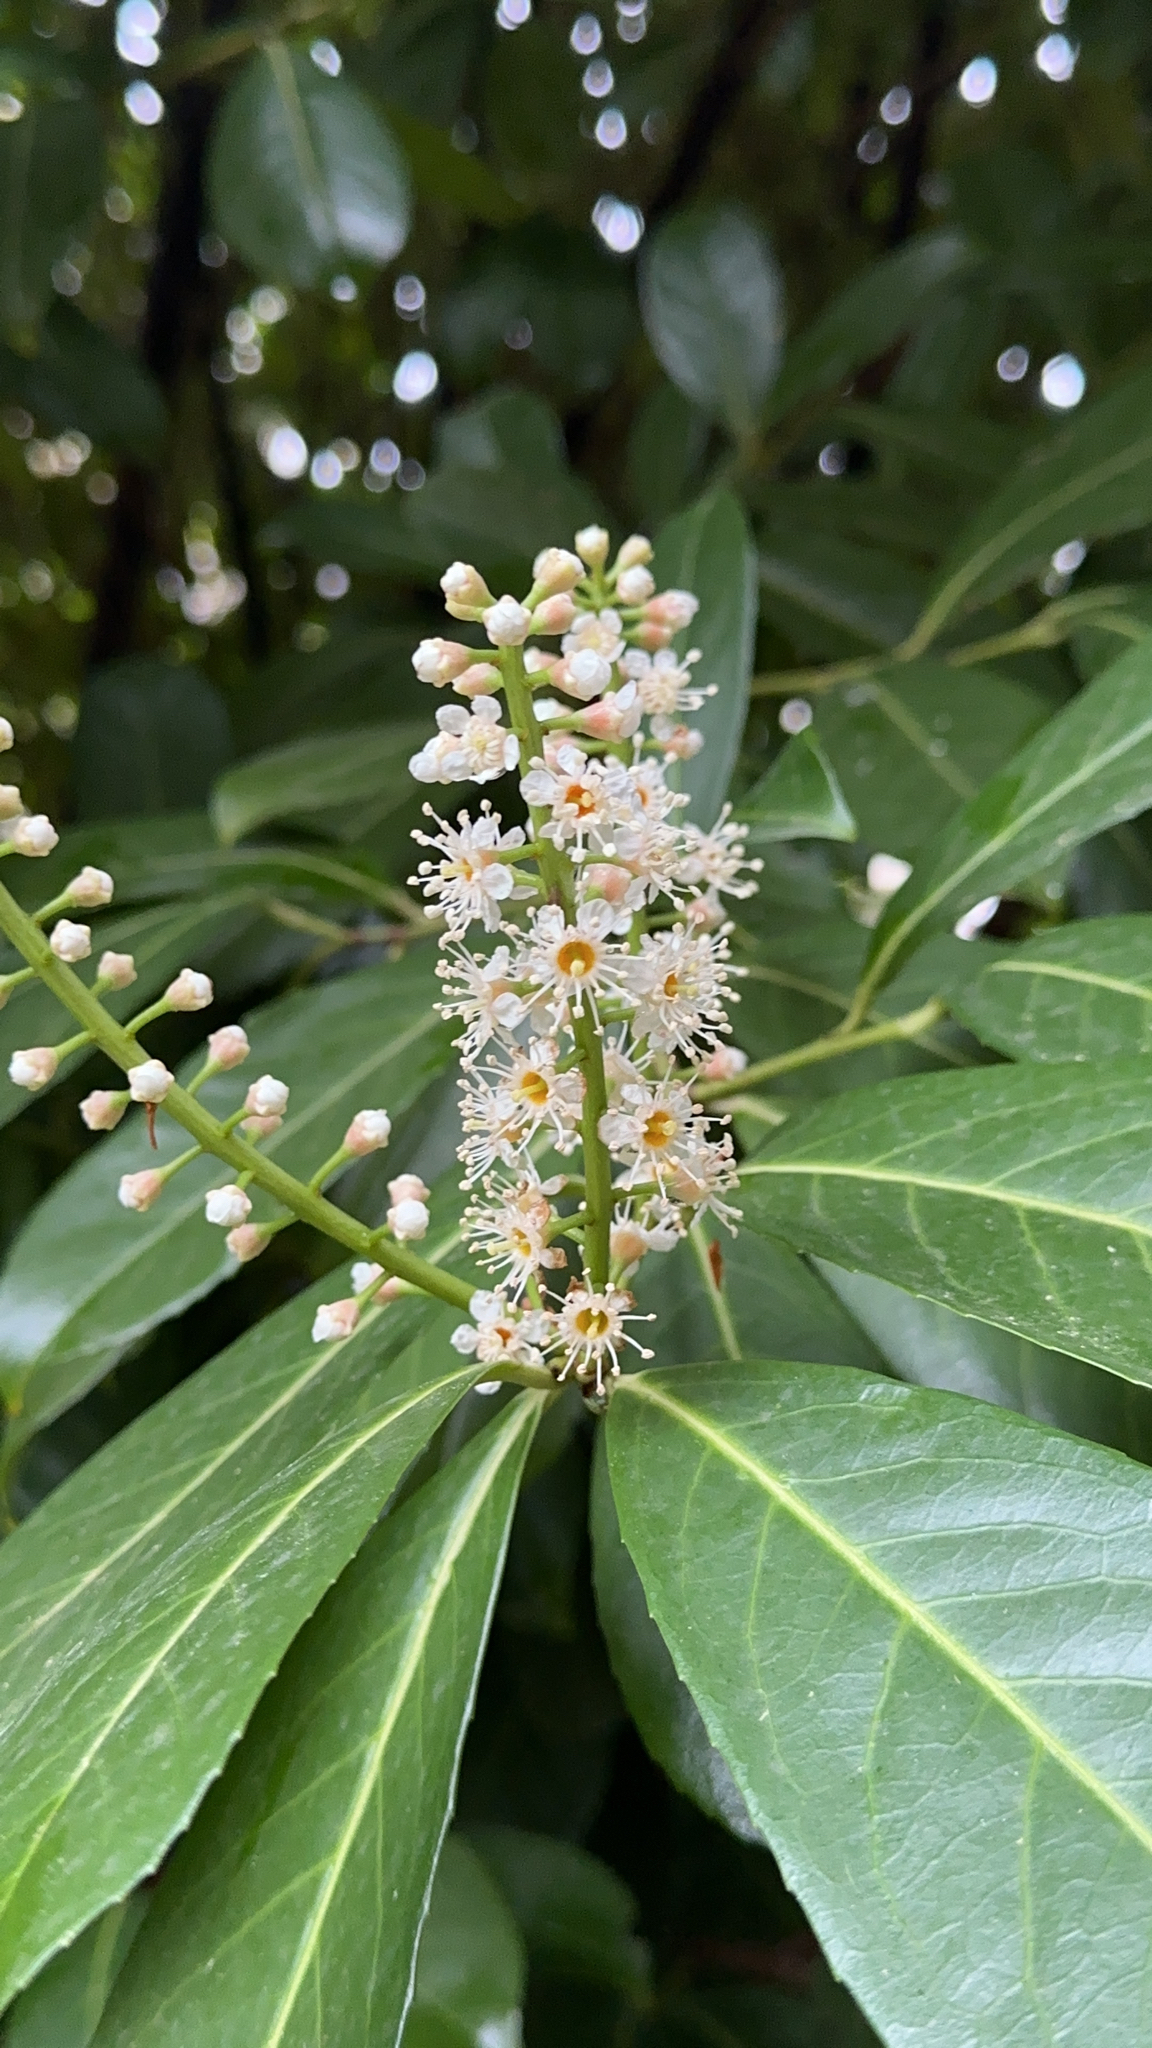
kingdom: Plantae
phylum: Tracheophyta
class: Magnoliopsida
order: Rosales
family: Rosaceae
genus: Prunus
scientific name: Prunus laurocerasus
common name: Cherry laurel
